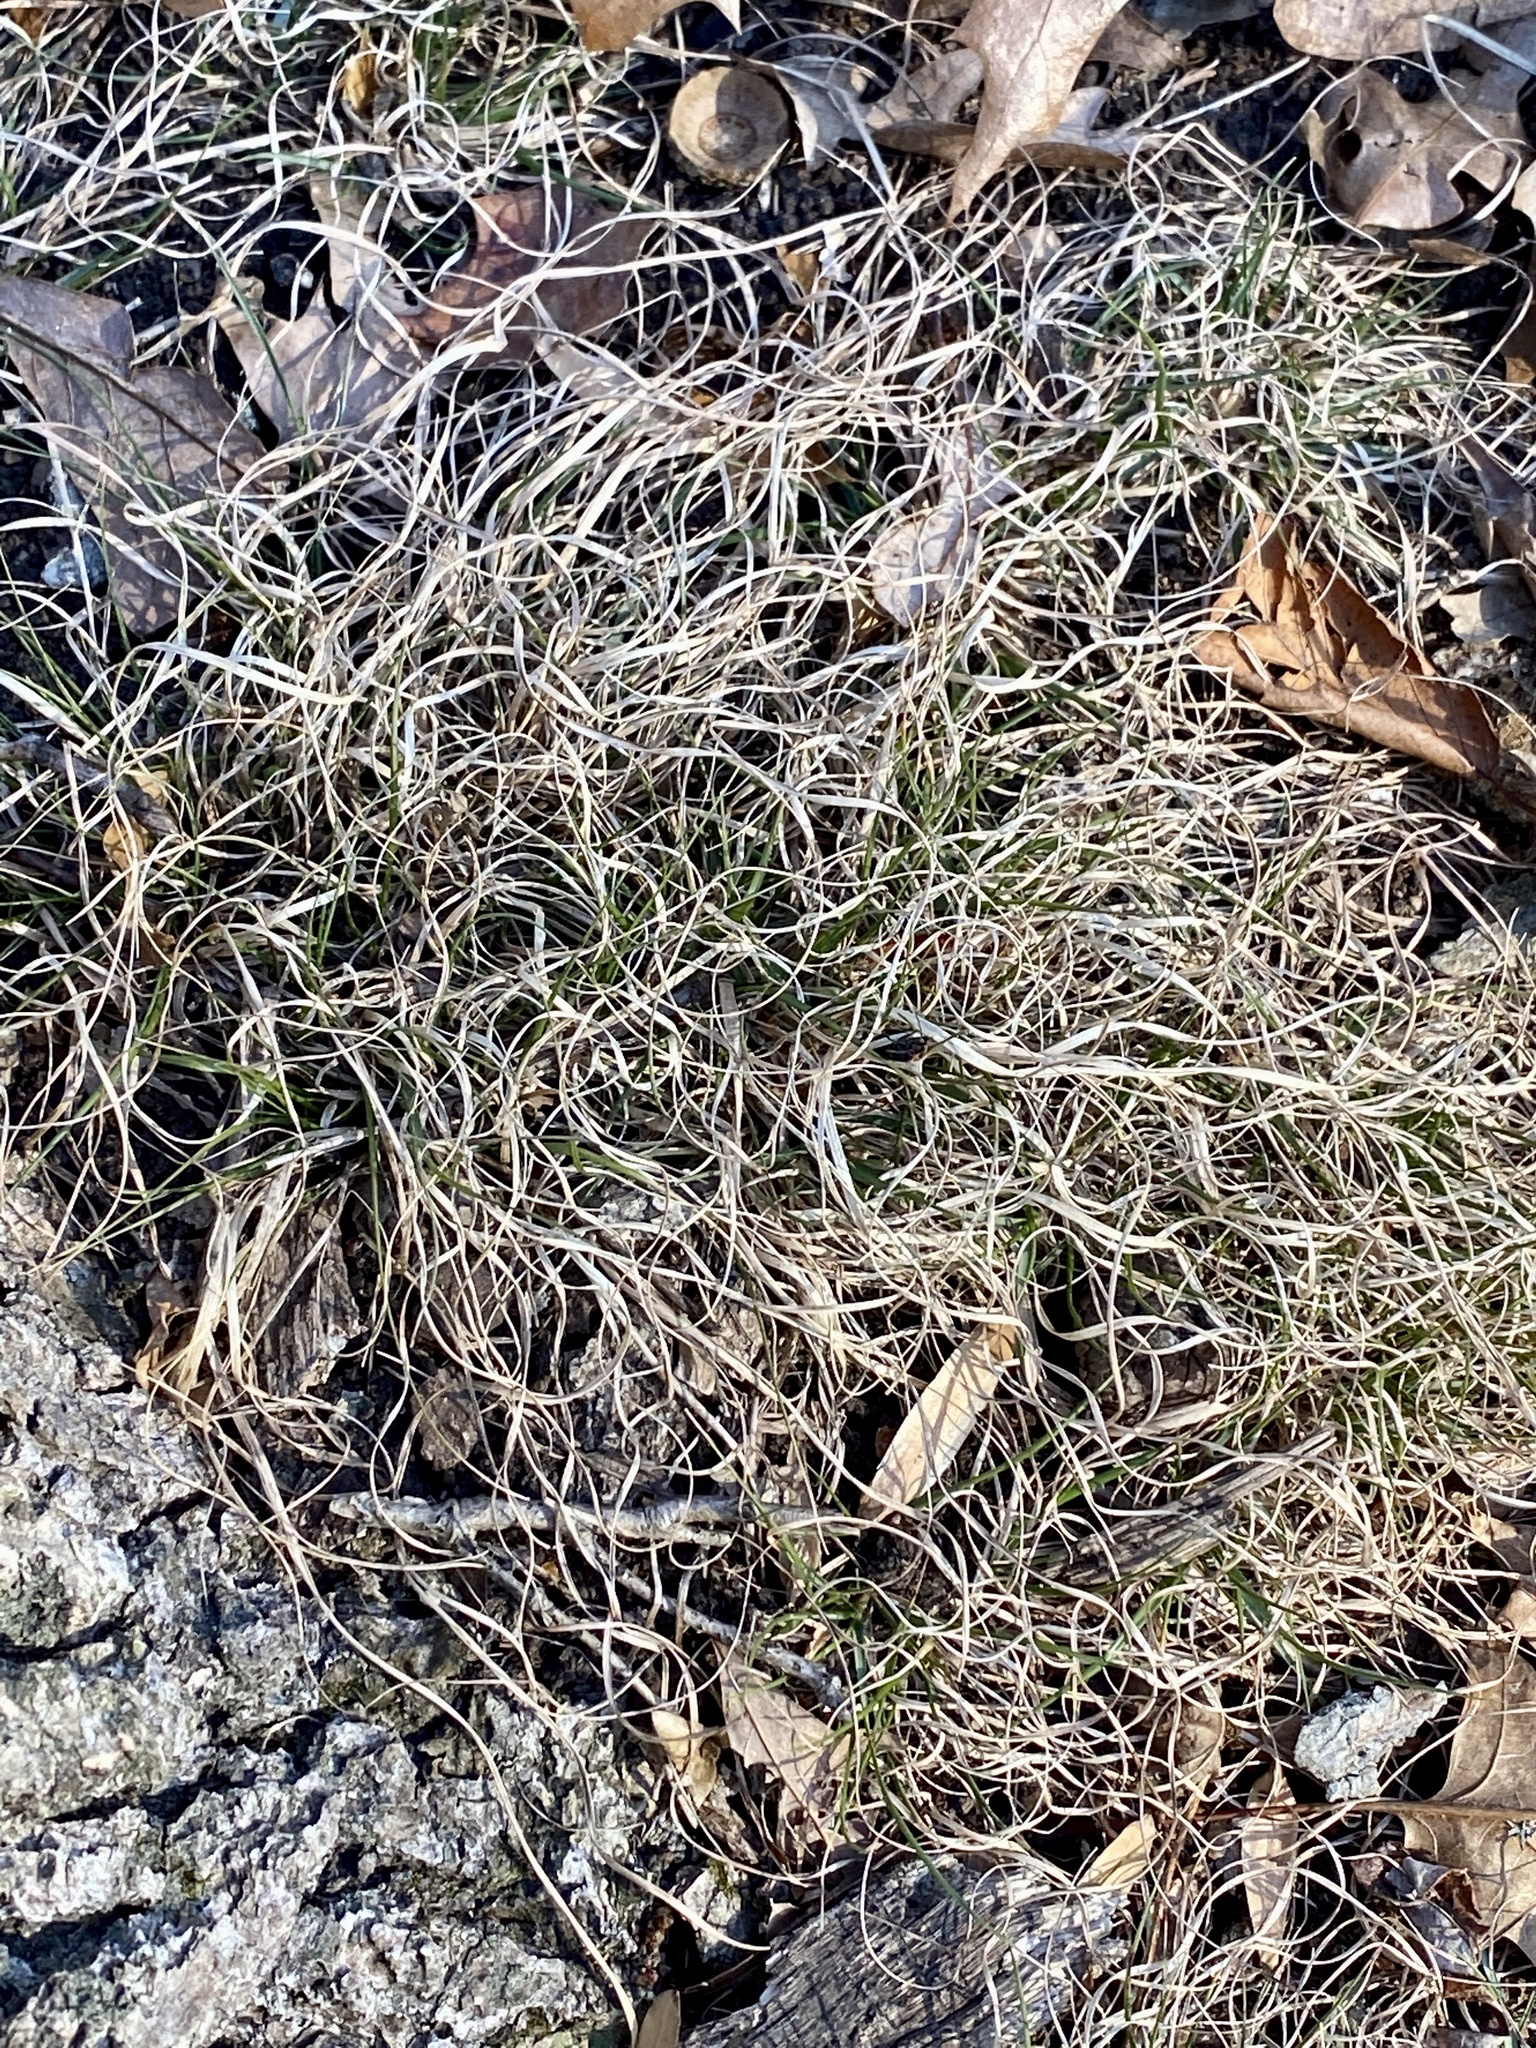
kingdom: Plantae
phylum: Tracheophyta
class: Liliopsida
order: Poales
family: Poaceae
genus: Danthonia
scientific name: Danthonia spicata
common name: Common wild oatgrass
